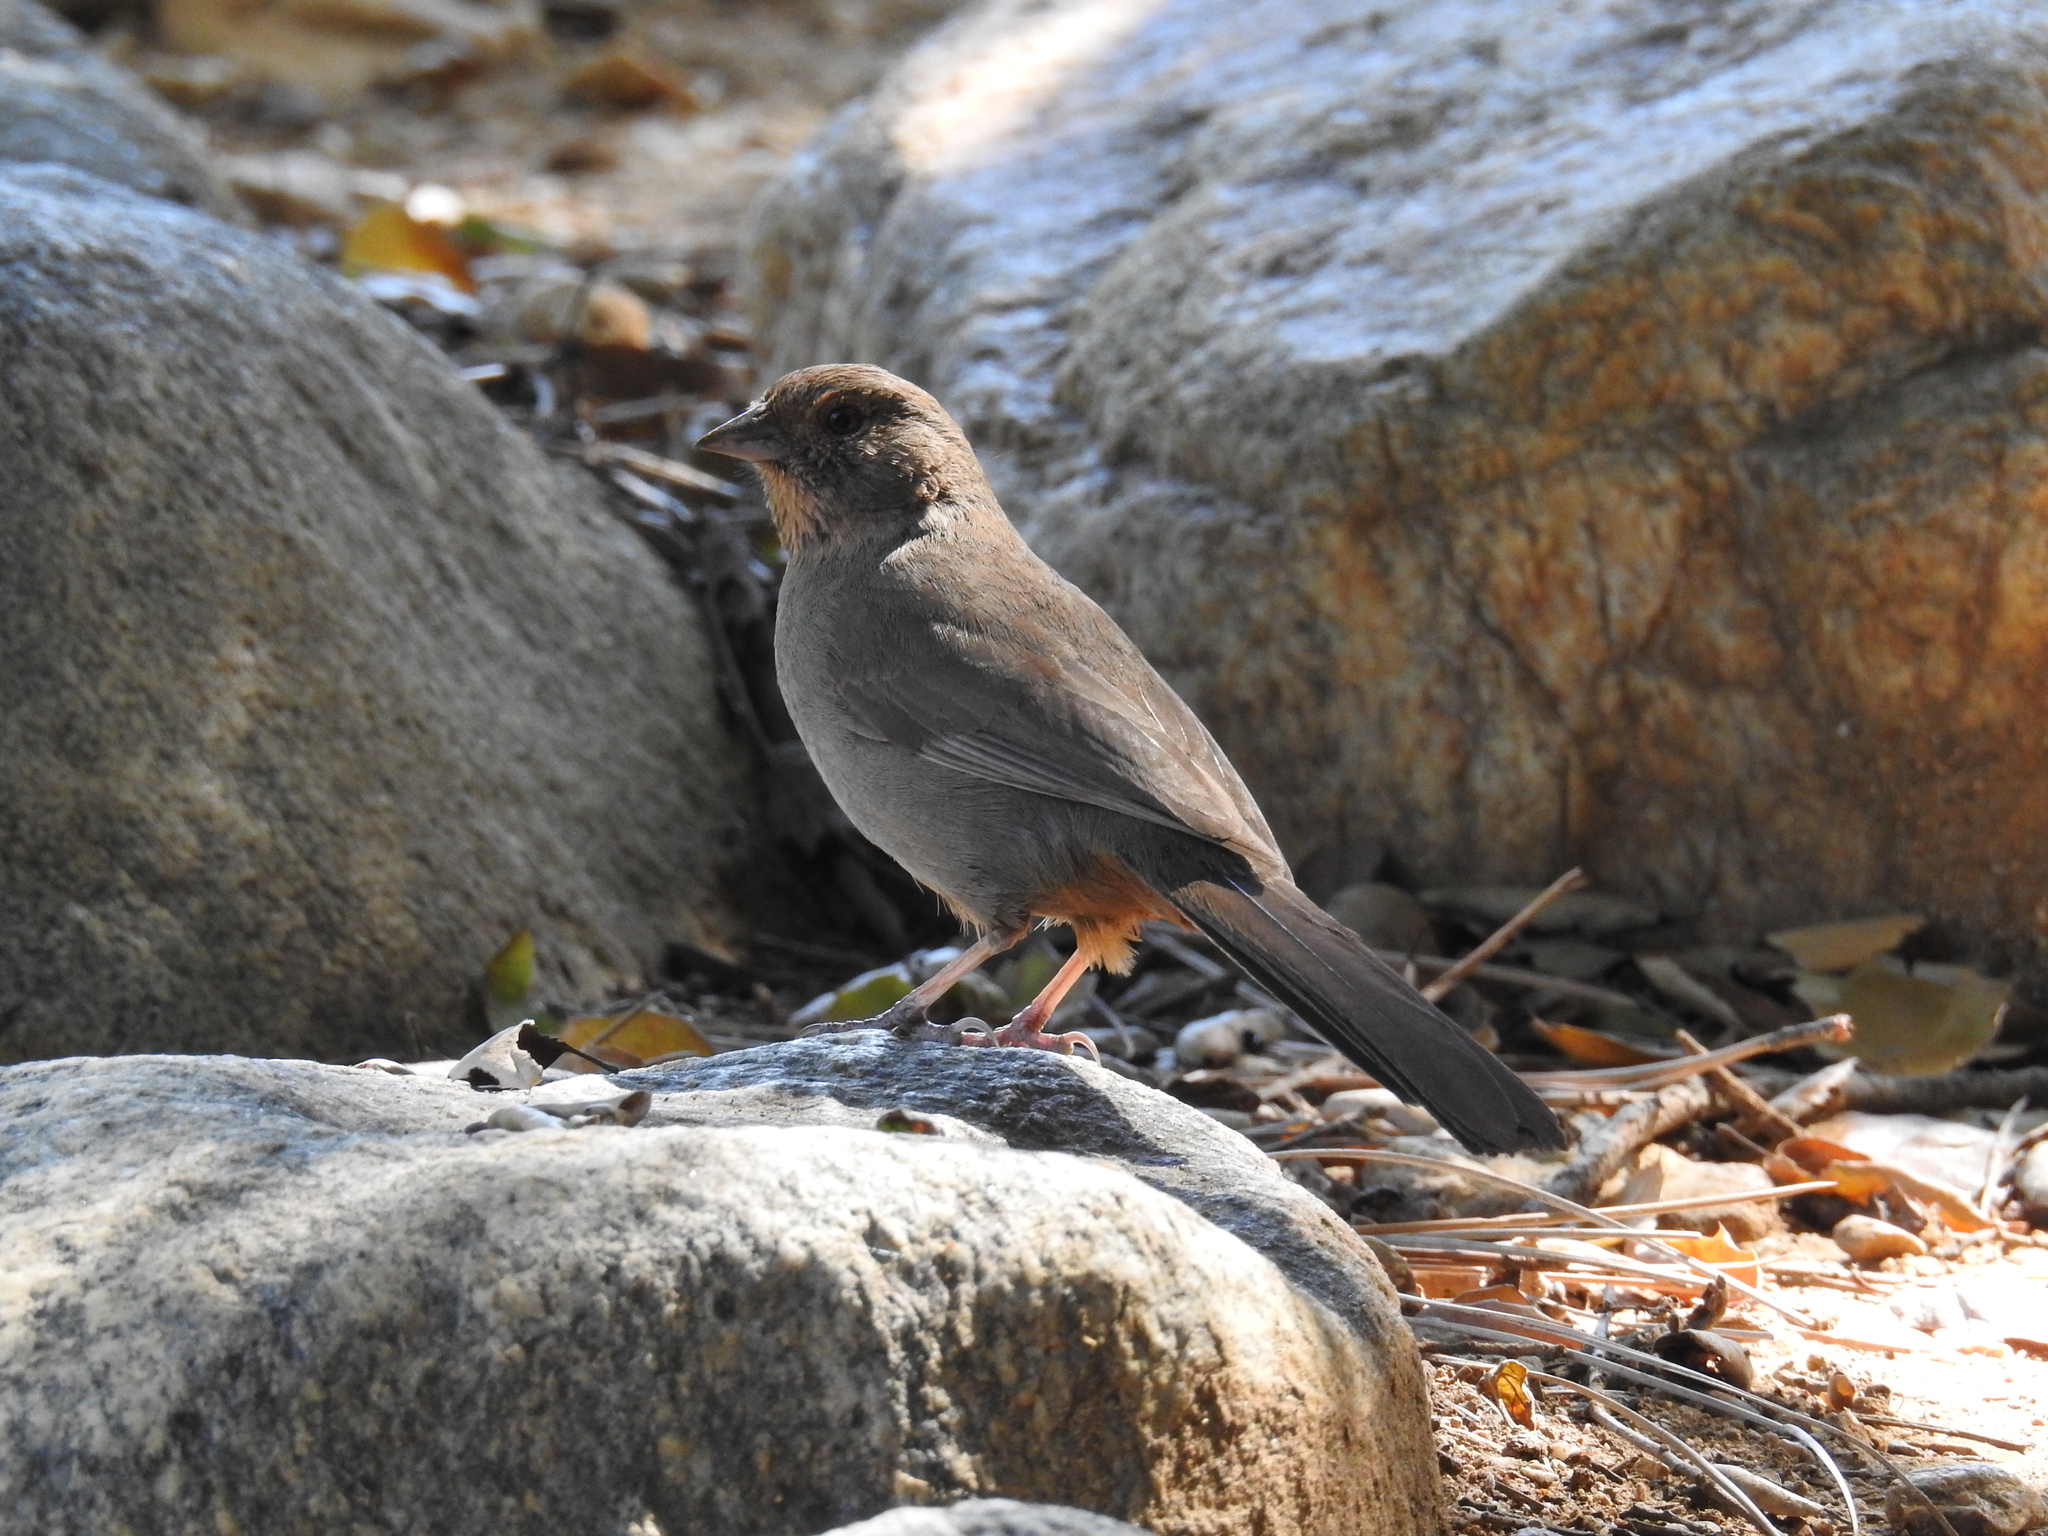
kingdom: Animalia
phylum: Chordata
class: Aves
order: Passeriformes
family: Passerellidae
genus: Melozone
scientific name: Melozone crissalis
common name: California towhee
